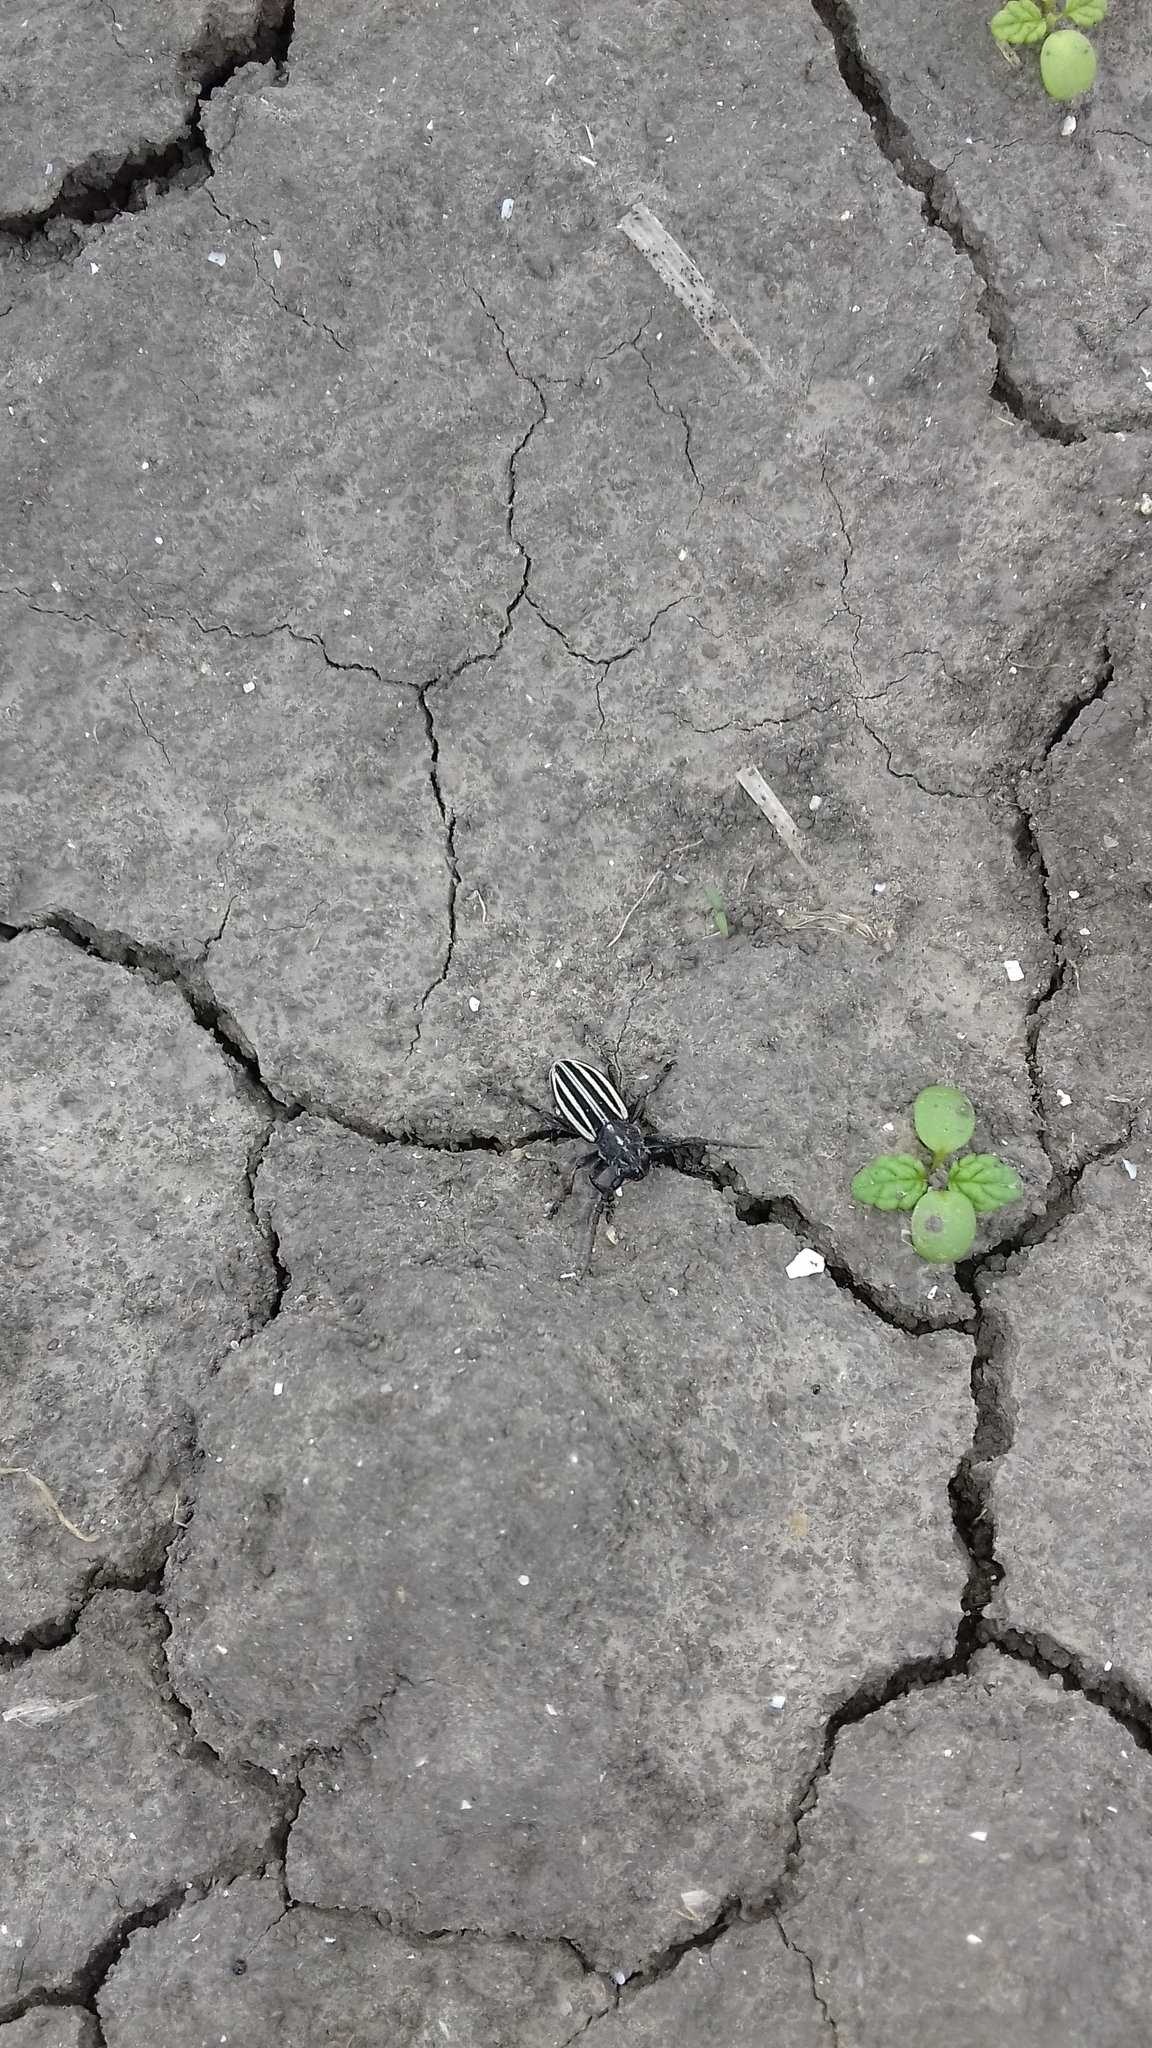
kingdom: Animalia
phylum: Arthropoda
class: Insecta
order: Coleoptera
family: Cerambycidae
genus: Dorcadion
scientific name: Dorcadion scopolii
